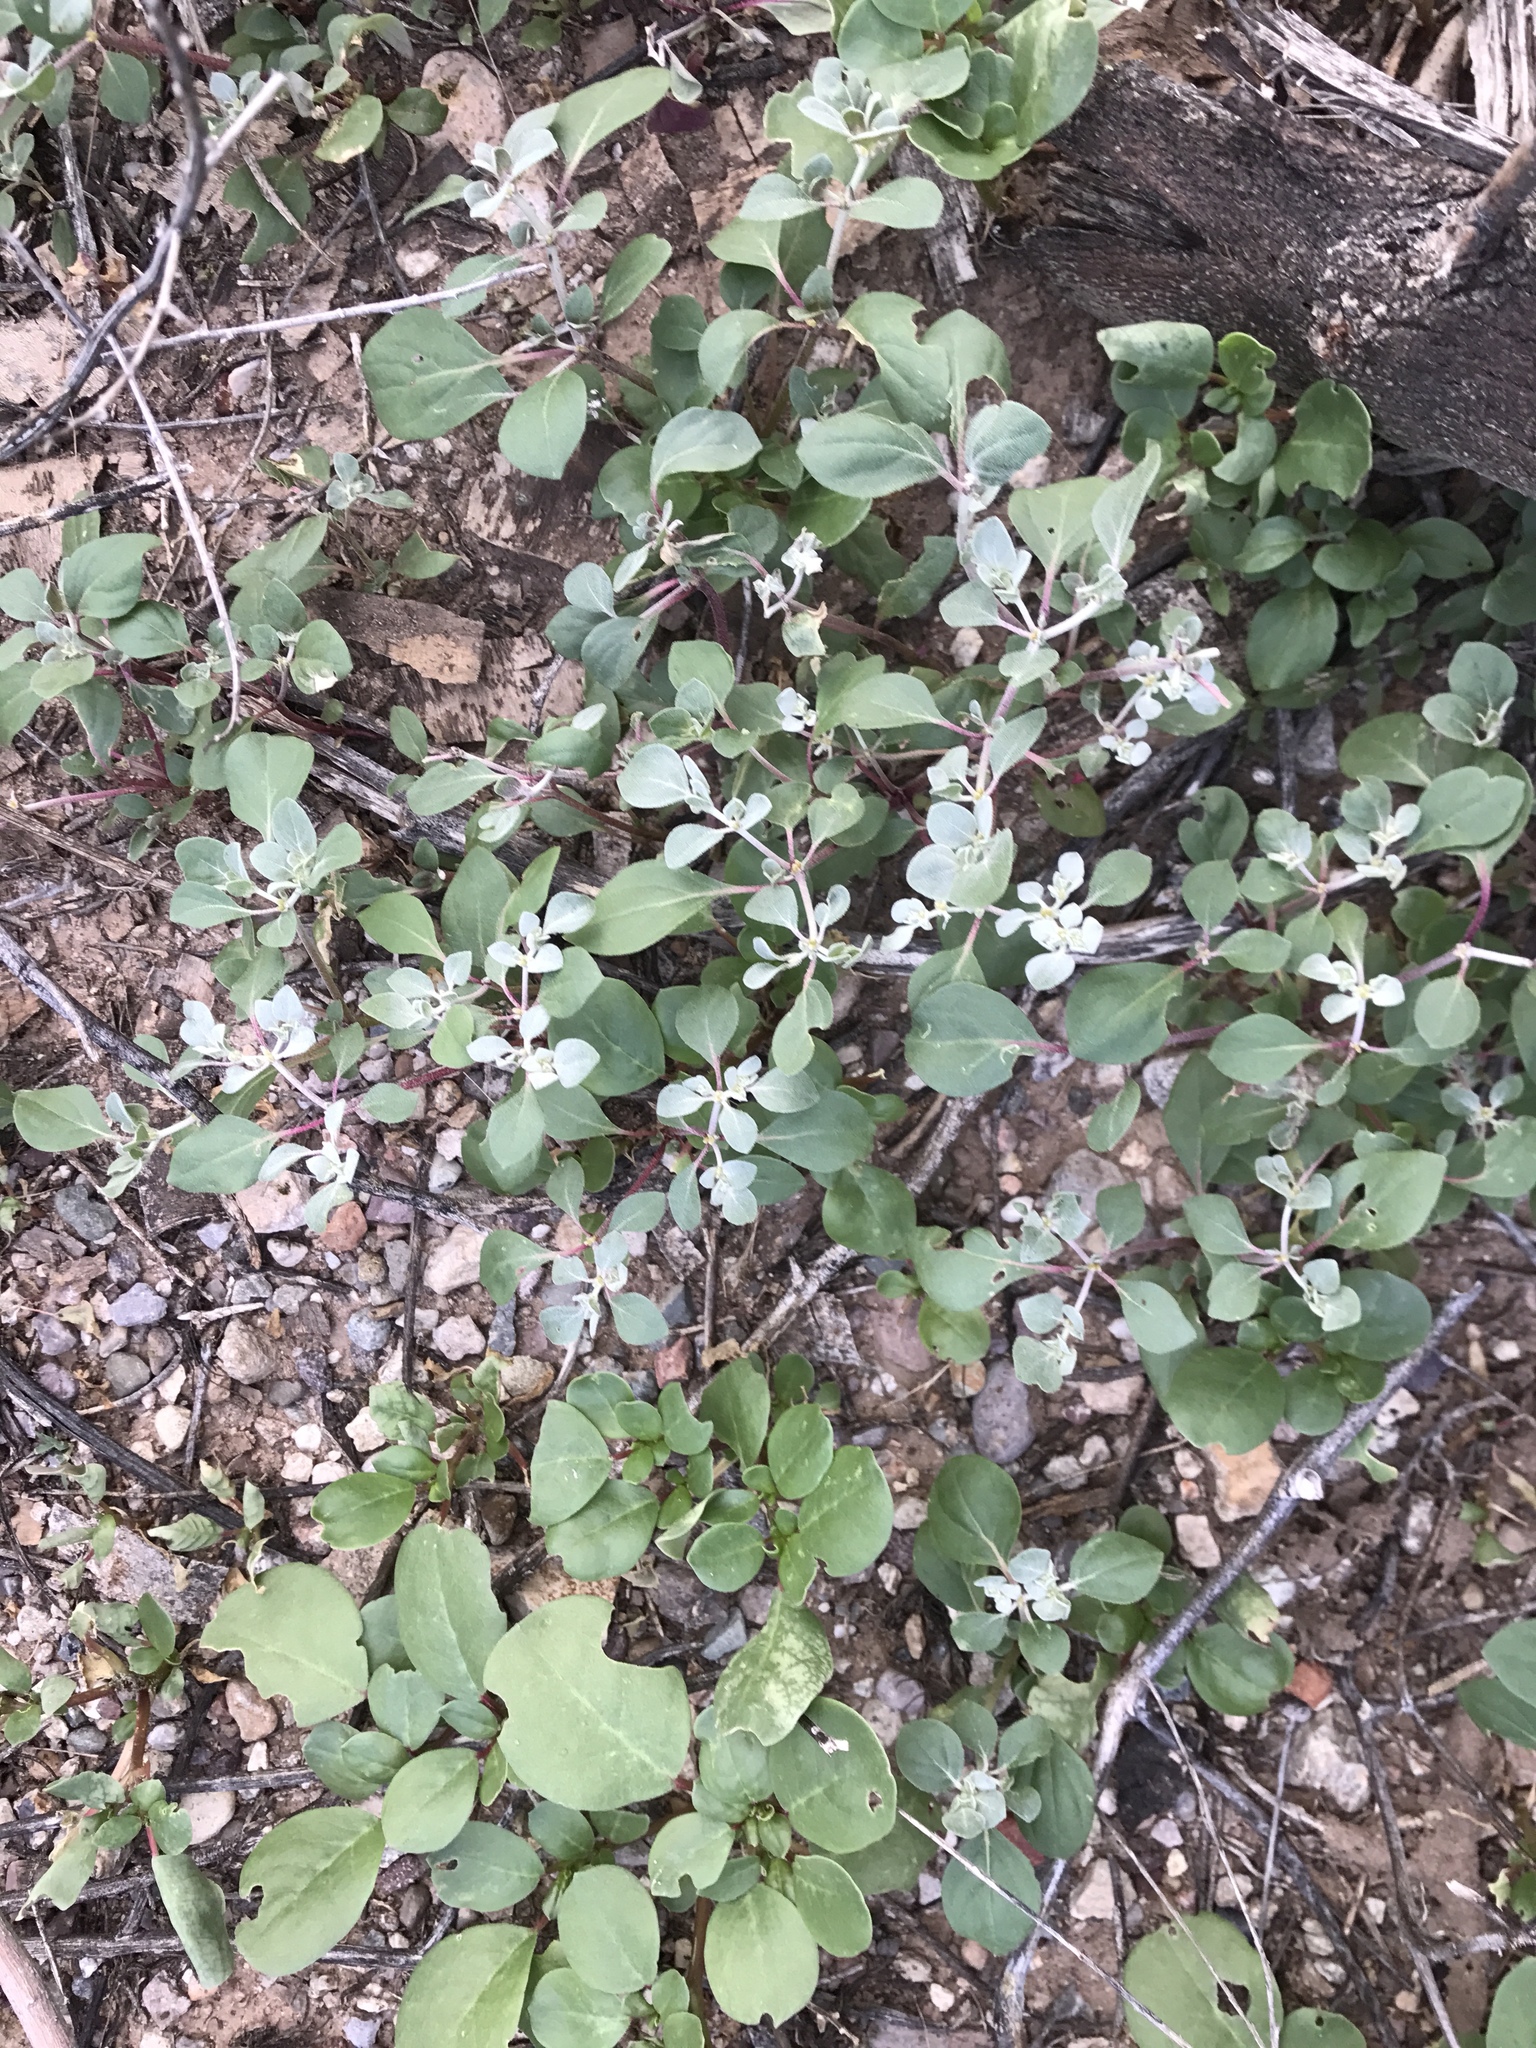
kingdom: Plantae
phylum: Tracheophyta
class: Magnoliopsida
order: Caryophyllales
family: Amaranthaceae
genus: Tidestromia
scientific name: Tidestromia lanuginosa
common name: Woolly tidestromia
